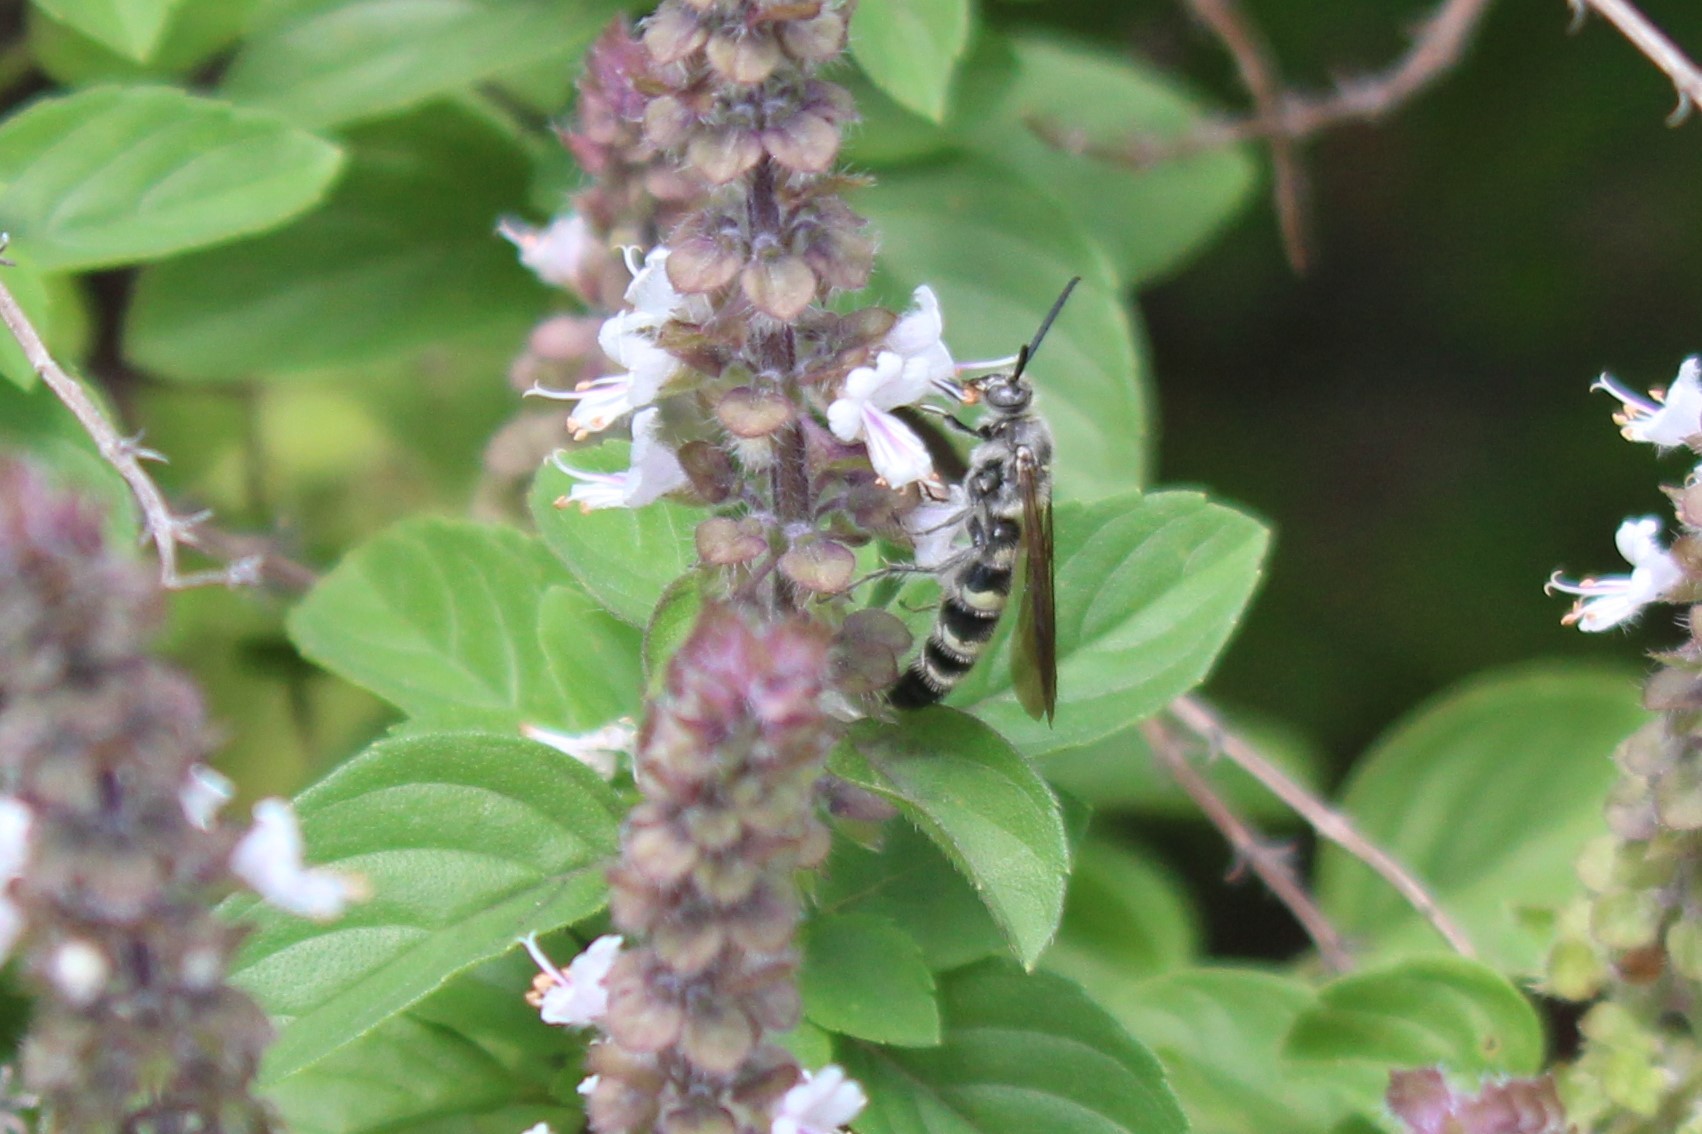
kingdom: Animalia
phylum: Arthropoda
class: Insecta
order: Hymenoptera
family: Scoliidae
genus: Dielis
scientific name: Dielis
